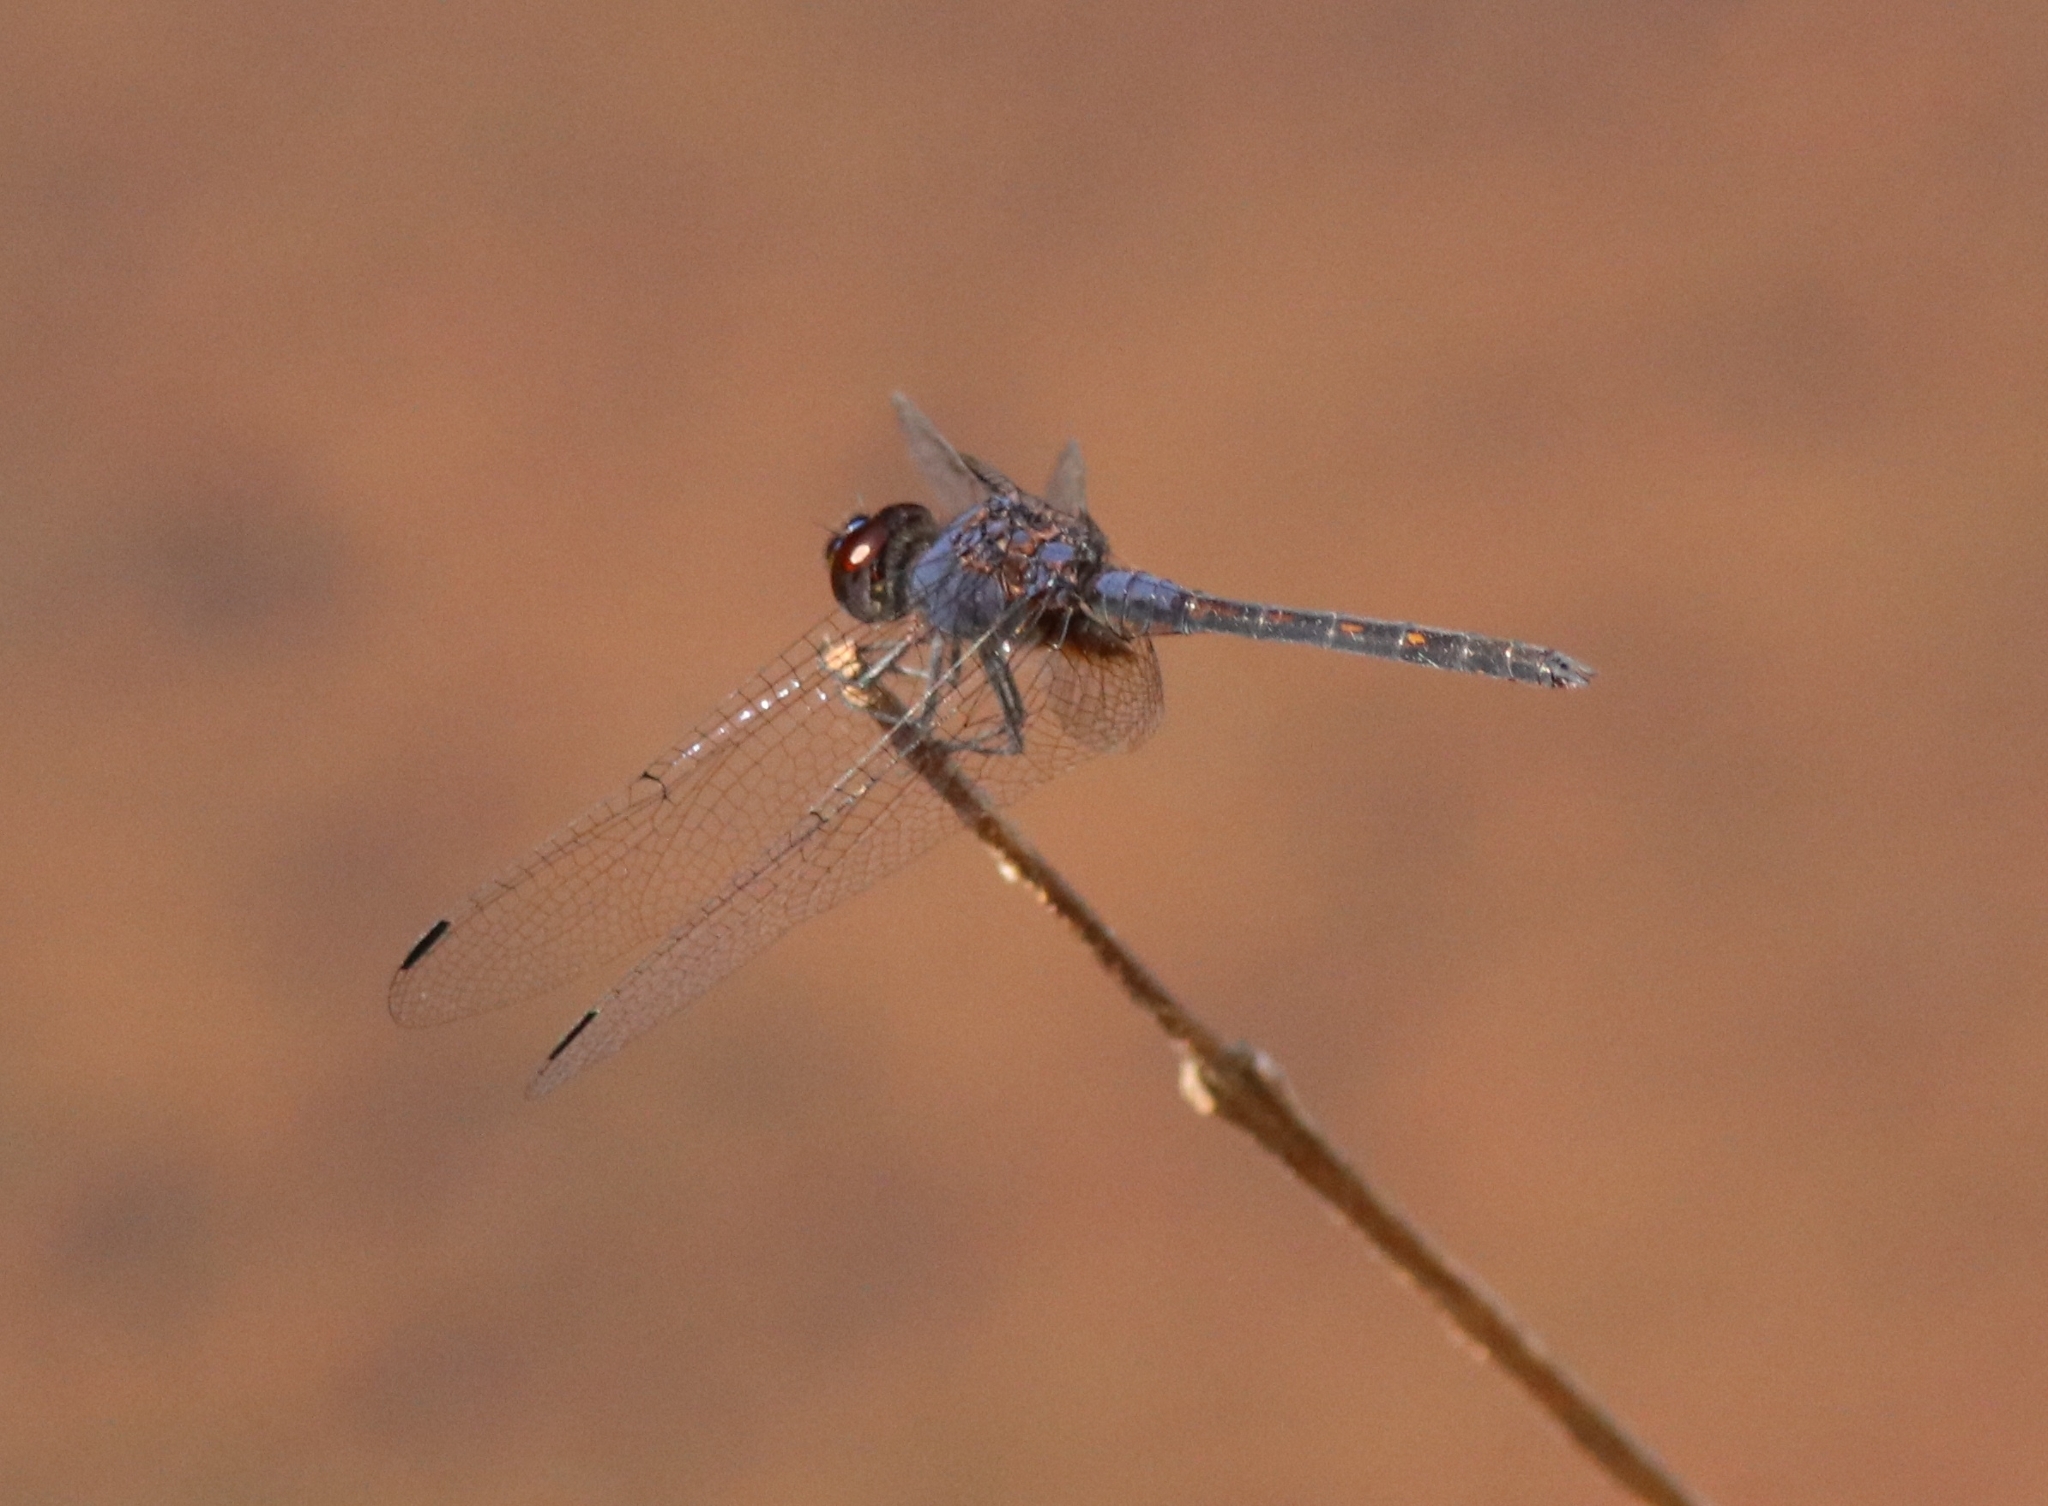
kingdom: Animalia
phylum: Arthropoda
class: Insecta
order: Odonata
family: Libellulidae
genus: Trithemis
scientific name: Trithemis festiva
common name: Indigo dropwing
